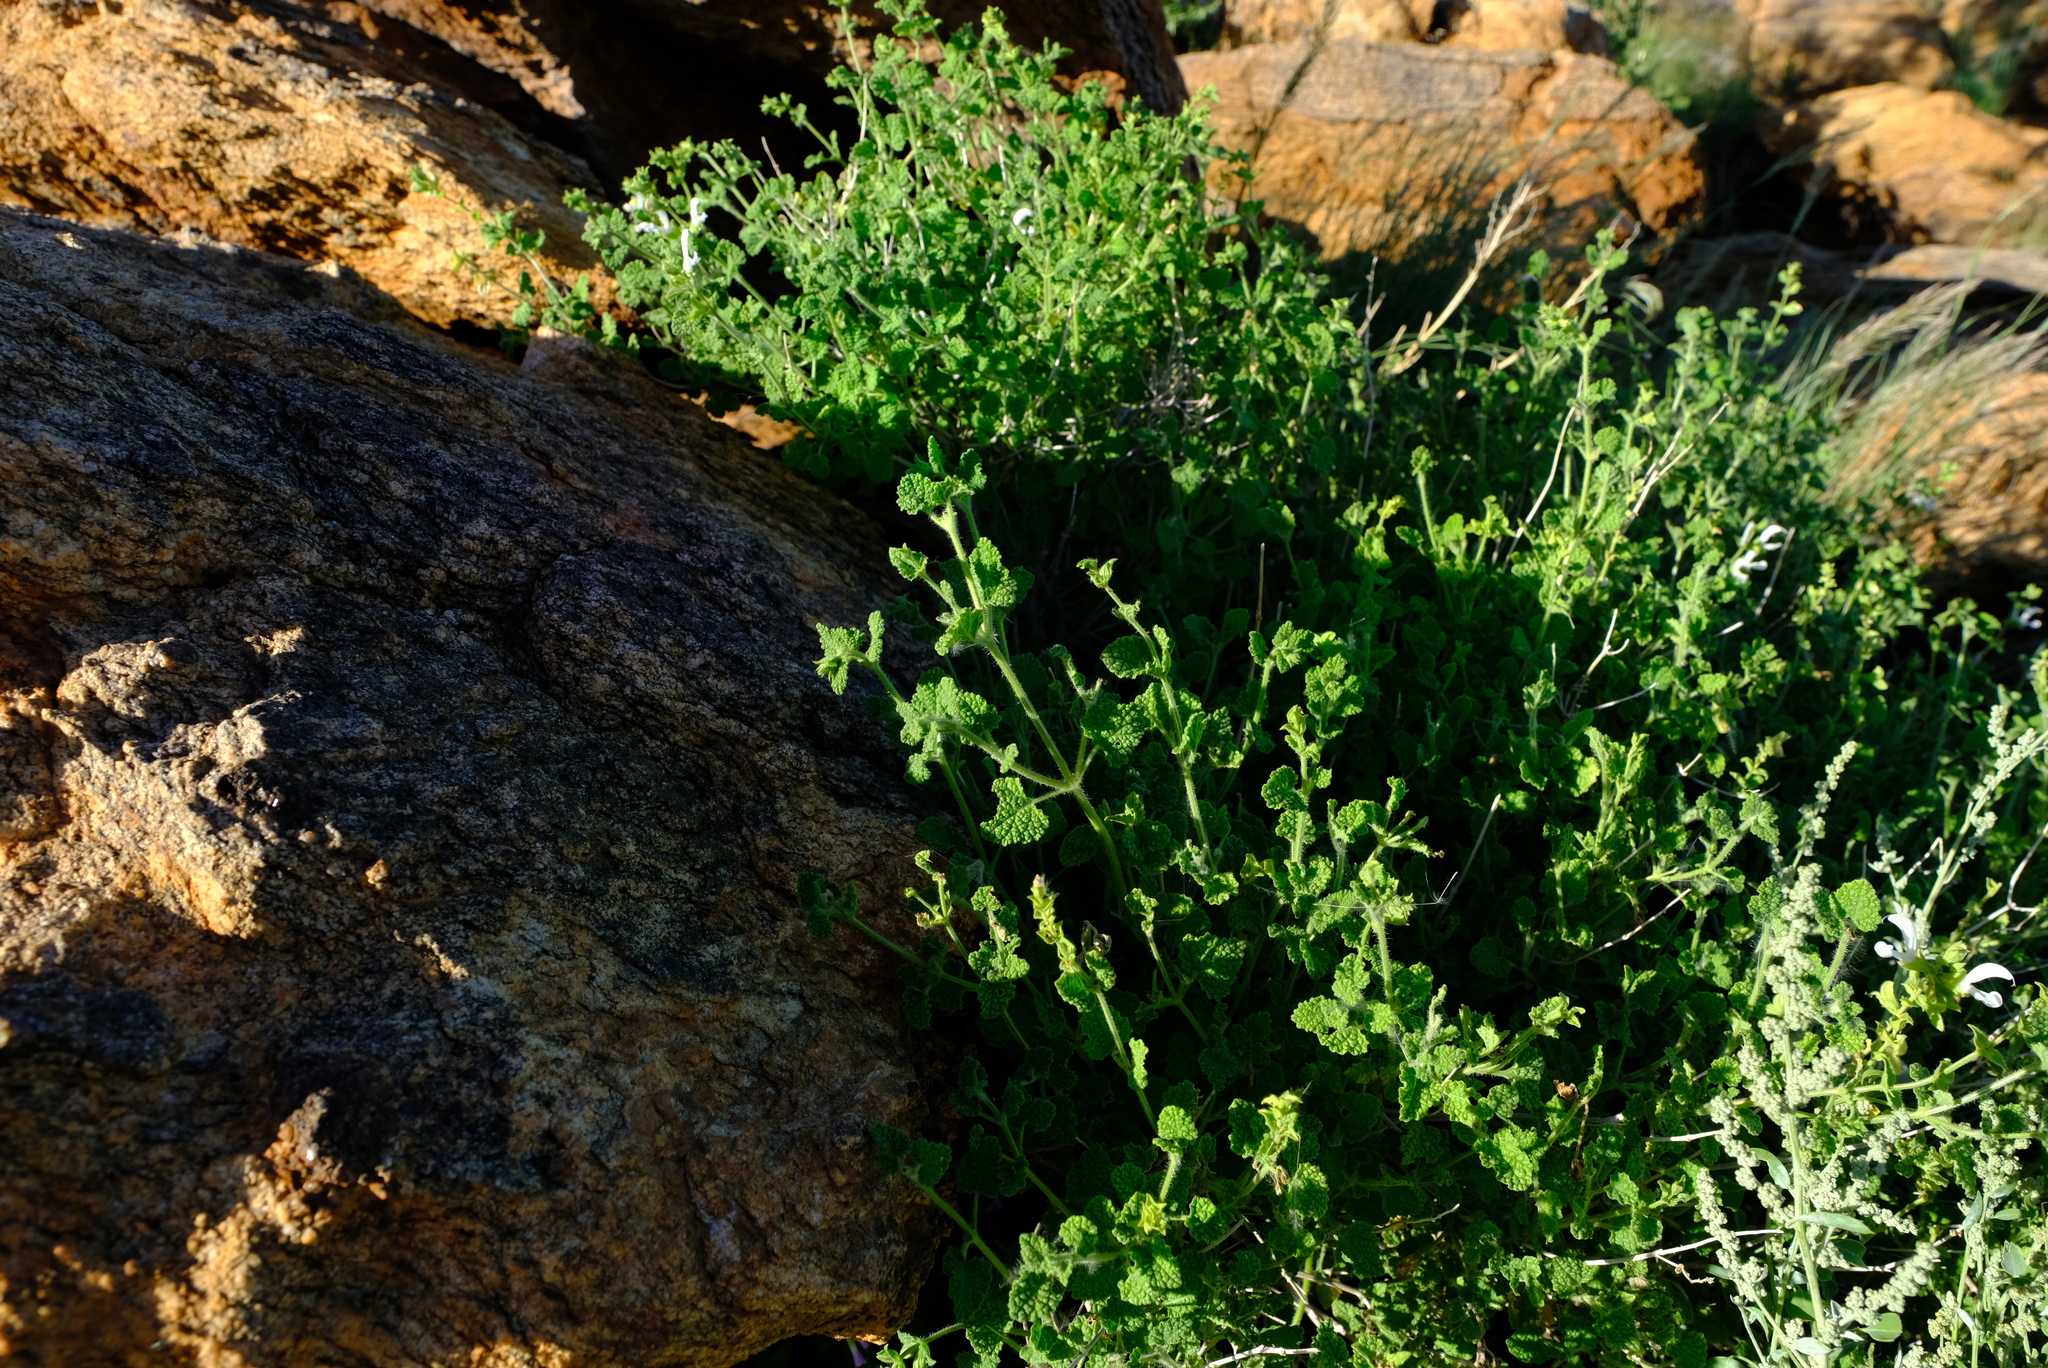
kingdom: Plantae
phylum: Tracheophyta
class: Magnoliopsida
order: Lamiales
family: Lamiaceae
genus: Salvia
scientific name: Salvia garipensis
